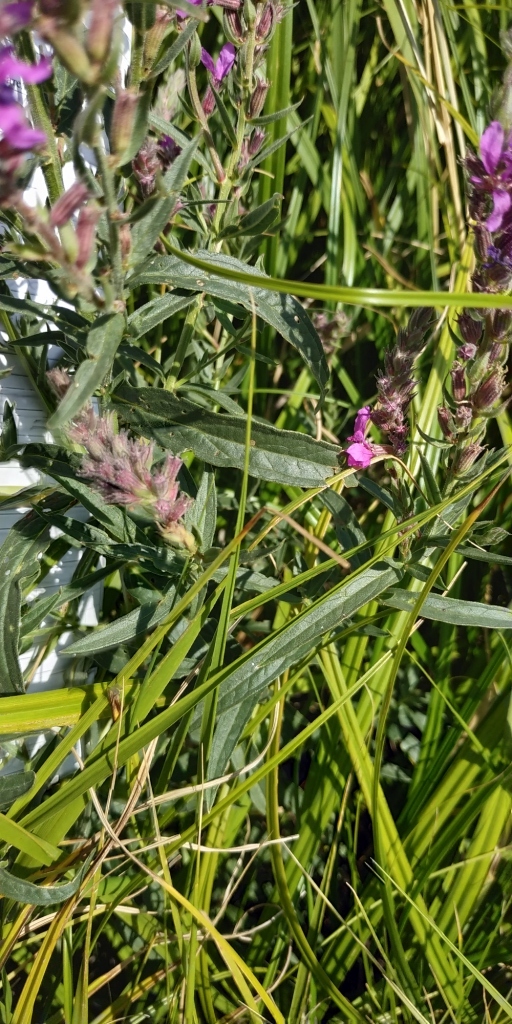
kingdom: Plantae
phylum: Tracheophyta
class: Magnoliopsida
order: Myrtales
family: Lythraceae
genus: Lythrum
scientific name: Lythrum salicaria
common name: Purple loosestrife
